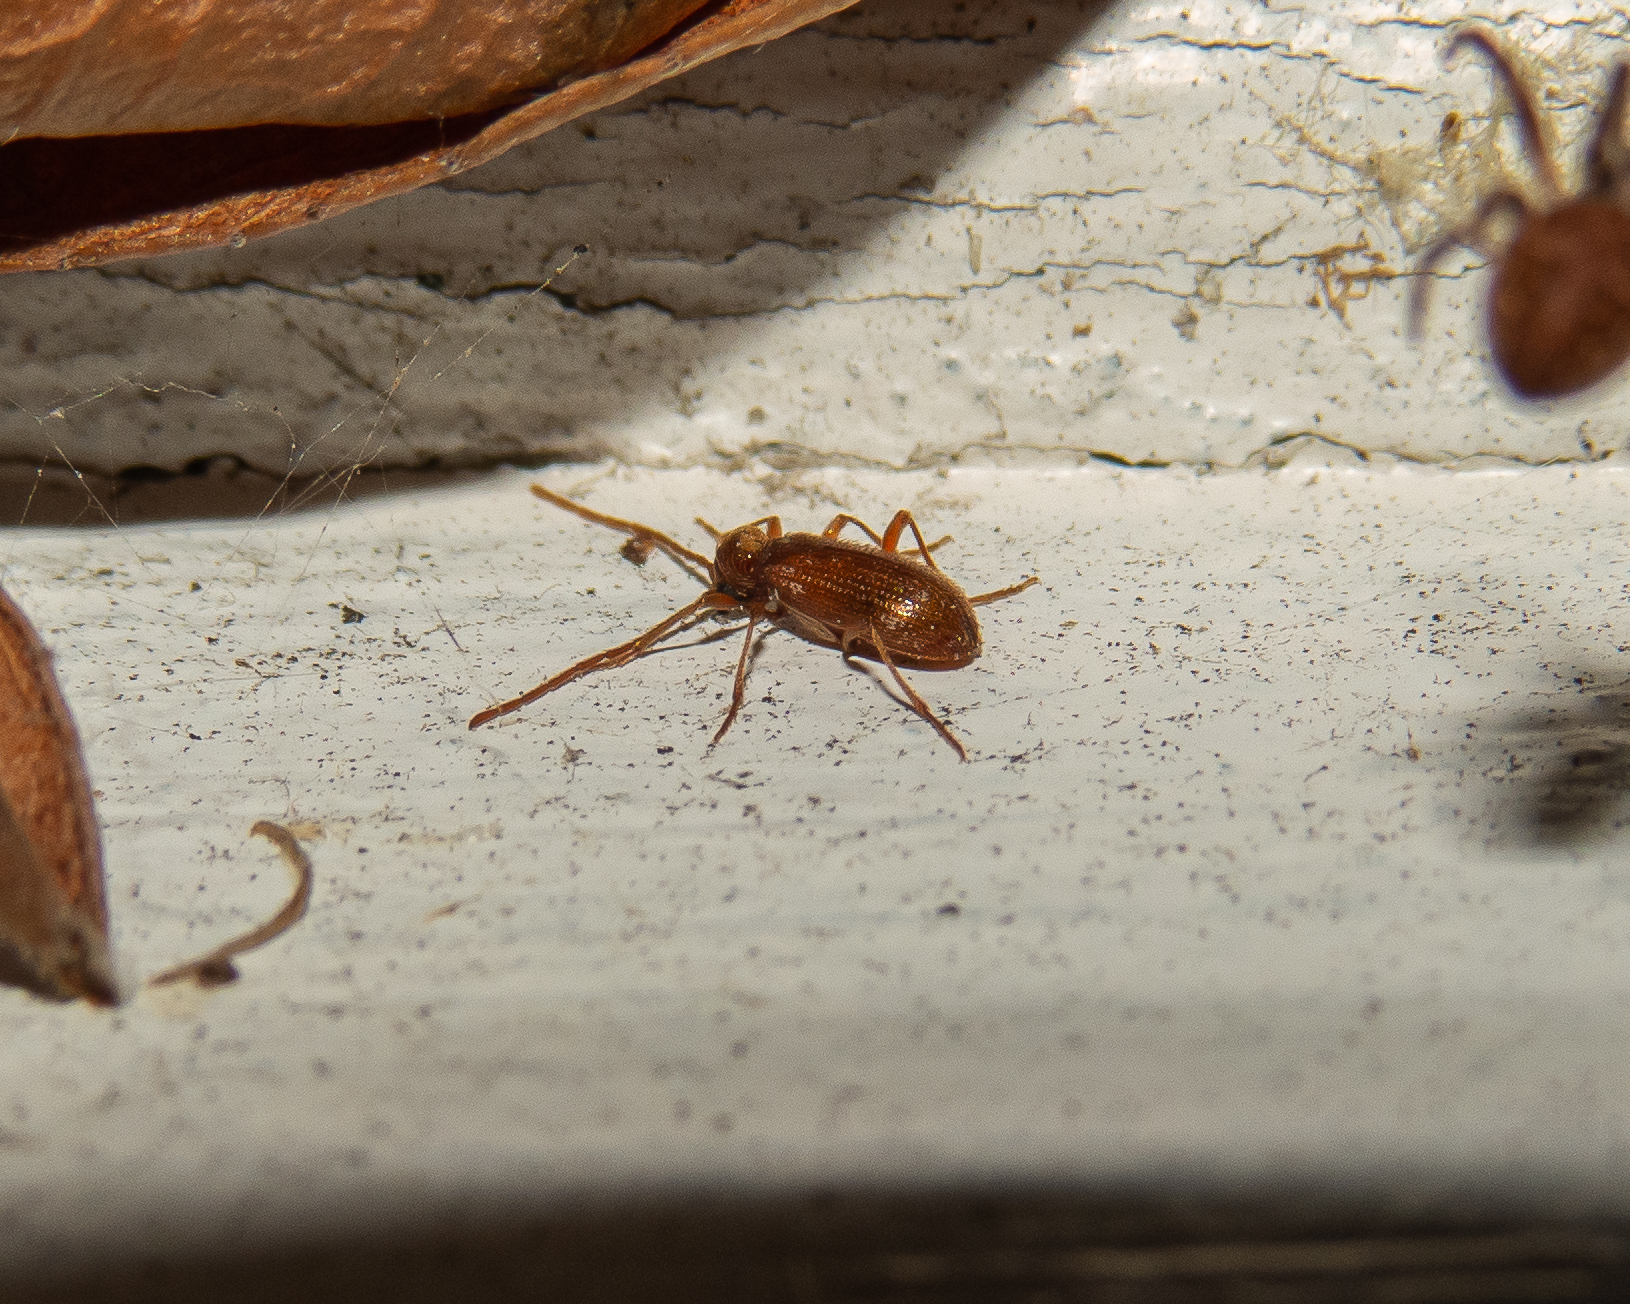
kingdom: Animalia
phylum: Arthropoda
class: Insecta
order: Coleoptera
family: Ptinidae
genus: Ptinus
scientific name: Ptinus raptor
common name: Eastern spider beetle
